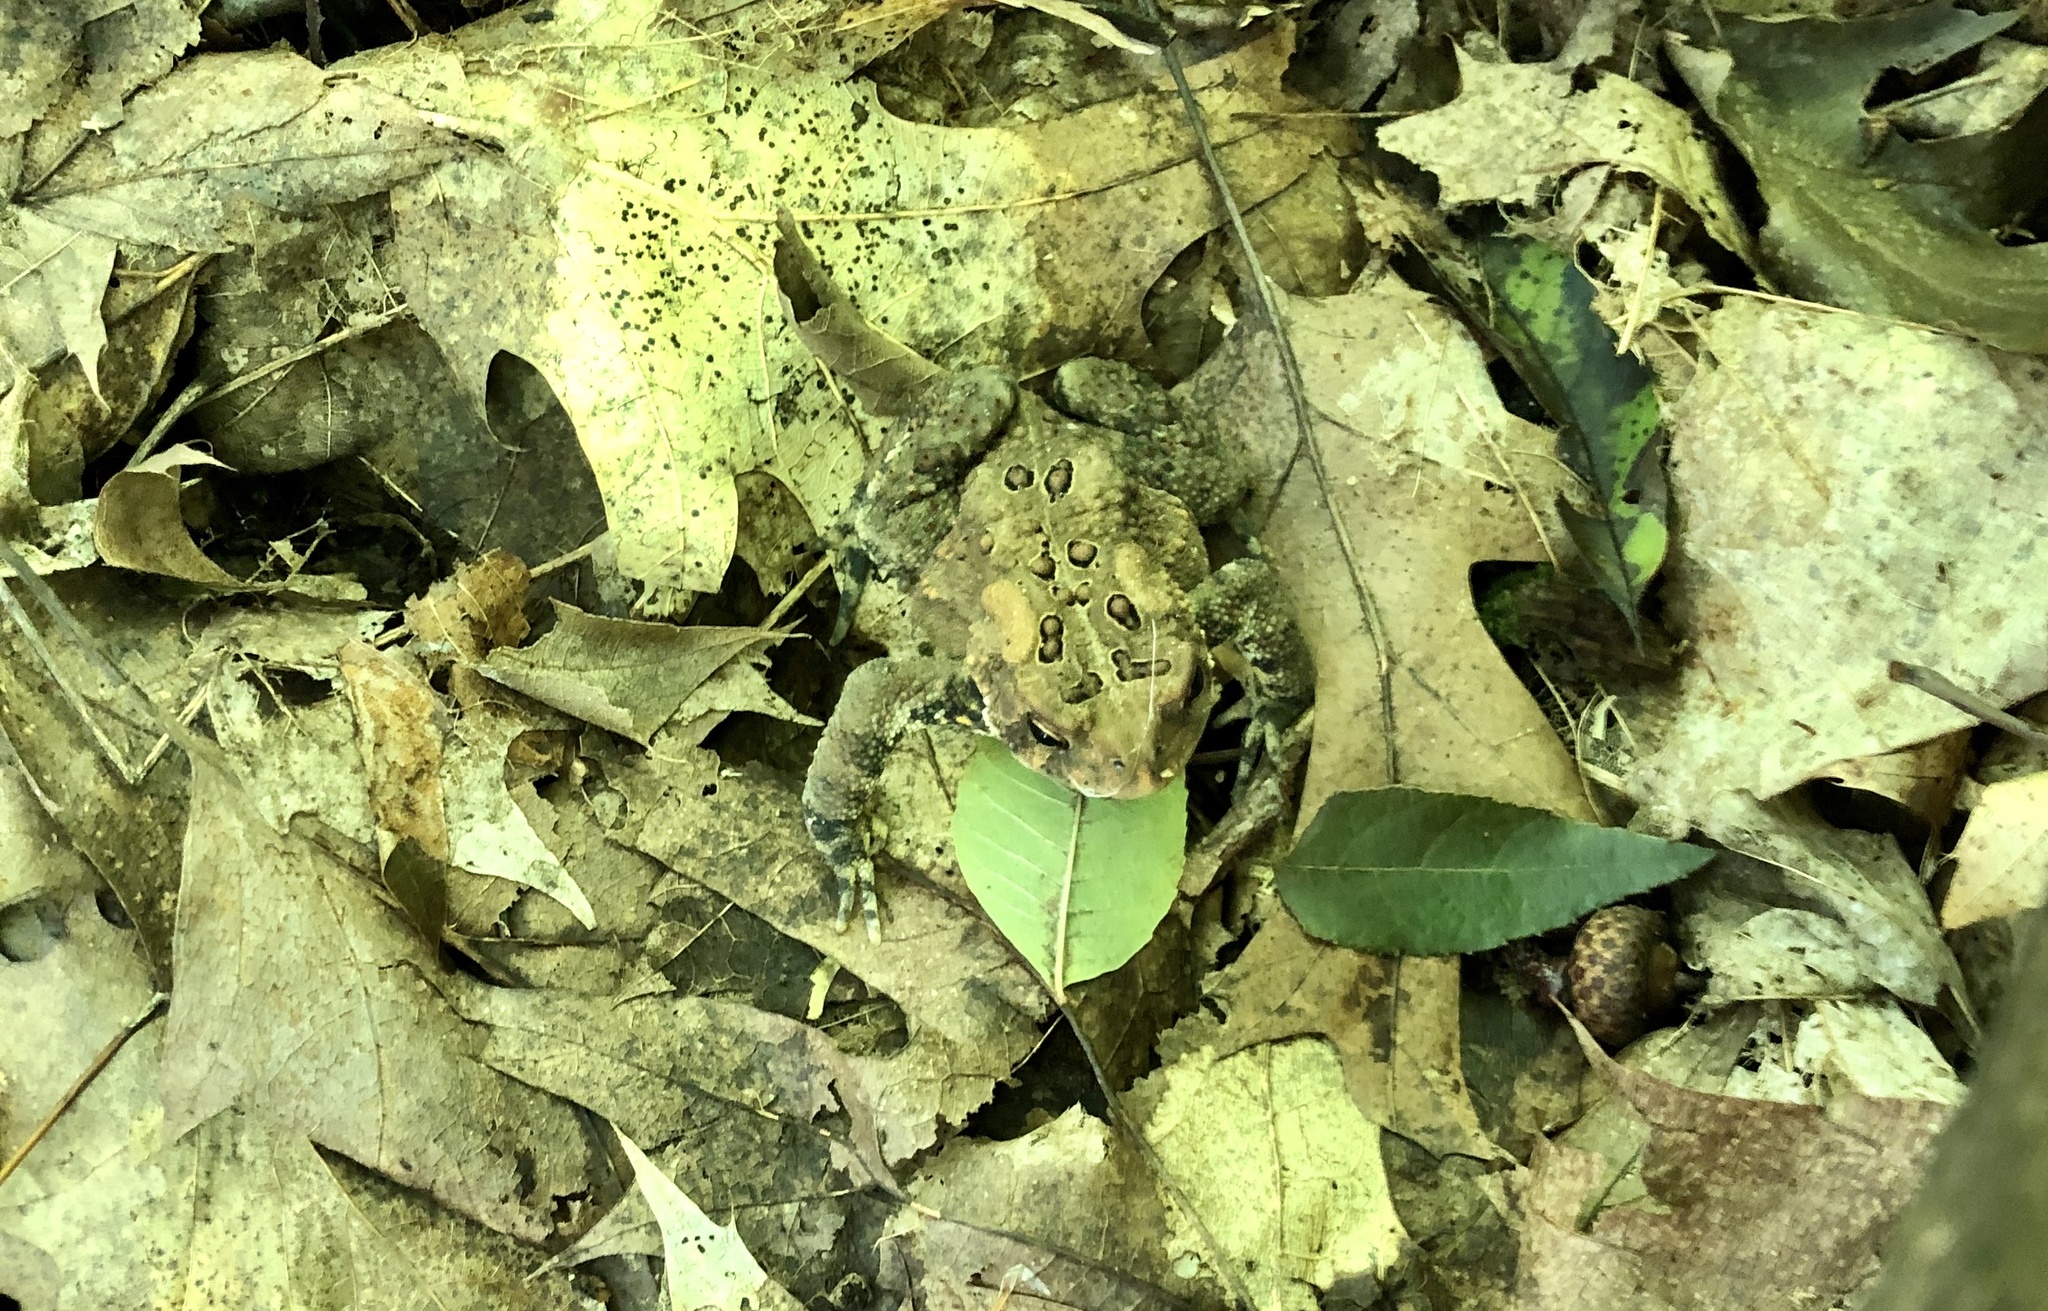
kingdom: Animalia
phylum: Chordata
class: Amphibia
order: Anura
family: Bufonidae
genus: Anaxyrus
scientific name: Anaxyrus americanus
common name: American toad
